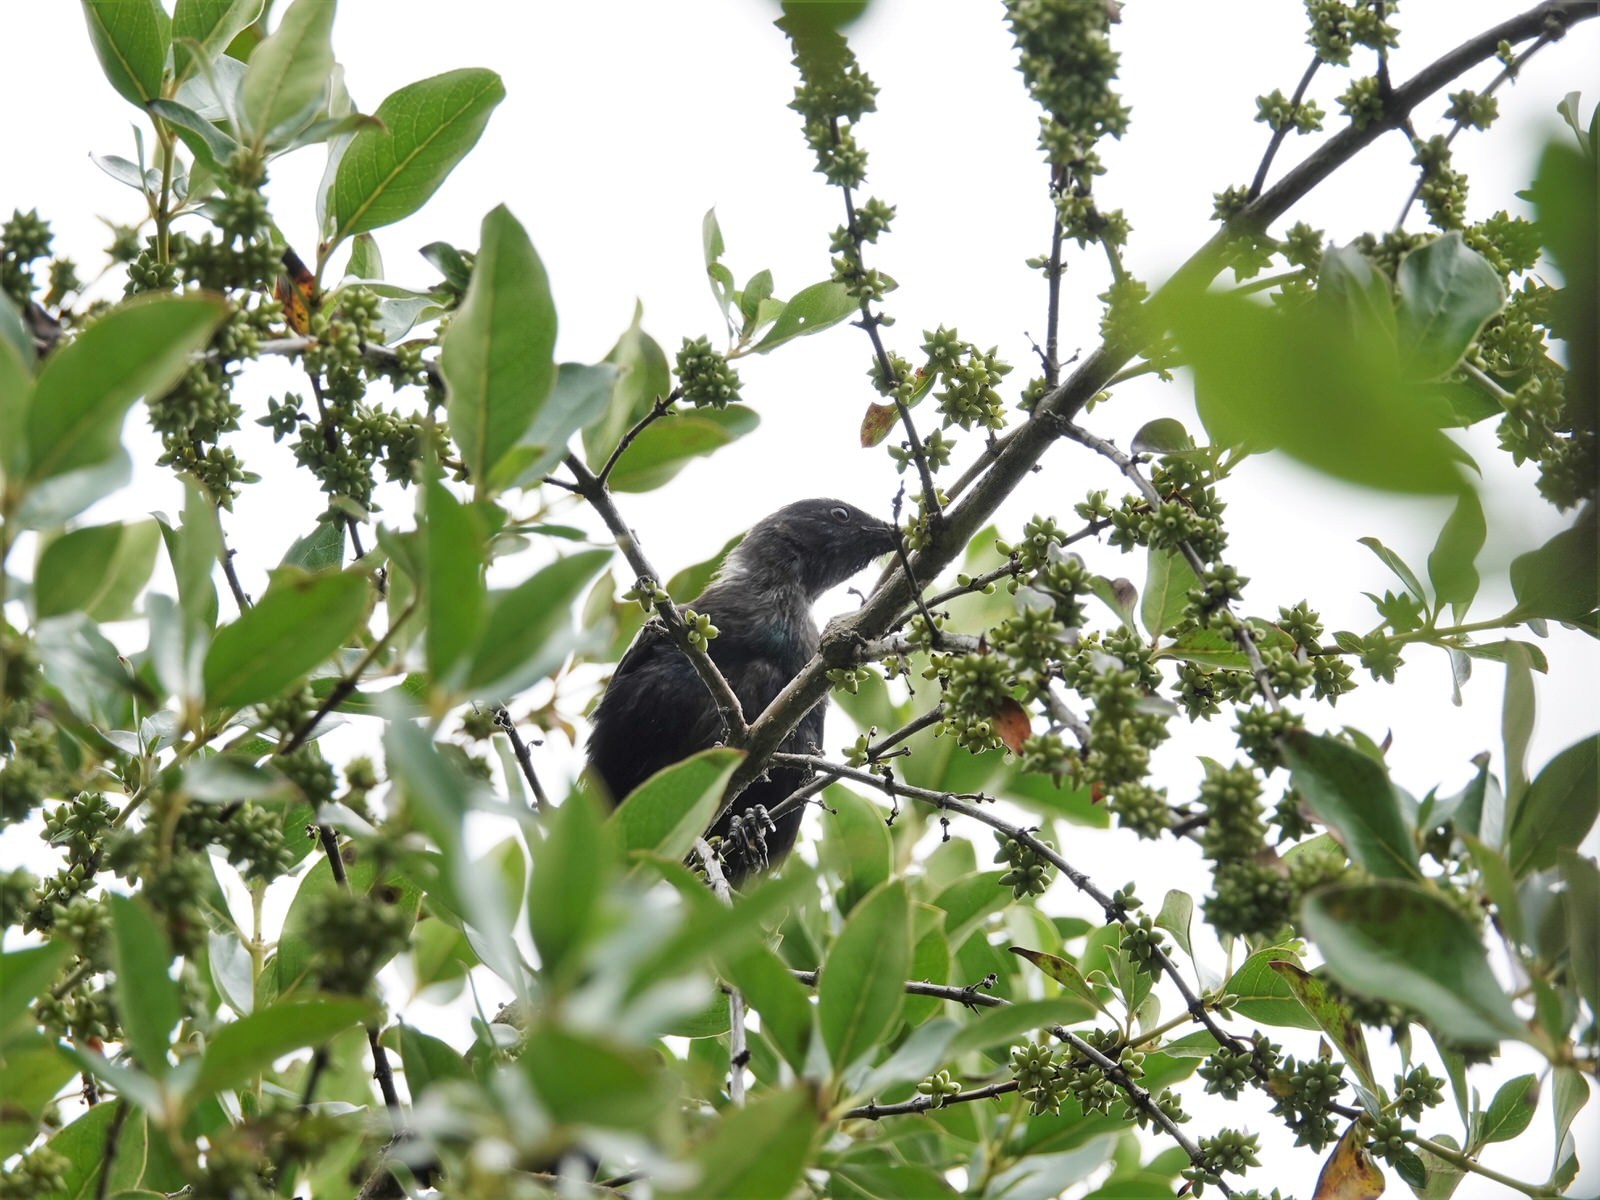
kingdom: Animalia
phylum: Chordata
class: Aves
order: Passeriformes
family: Meliphagidae
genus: Prosthemadera
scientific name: Prosthemadera novaeseelandiae
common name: Tui
